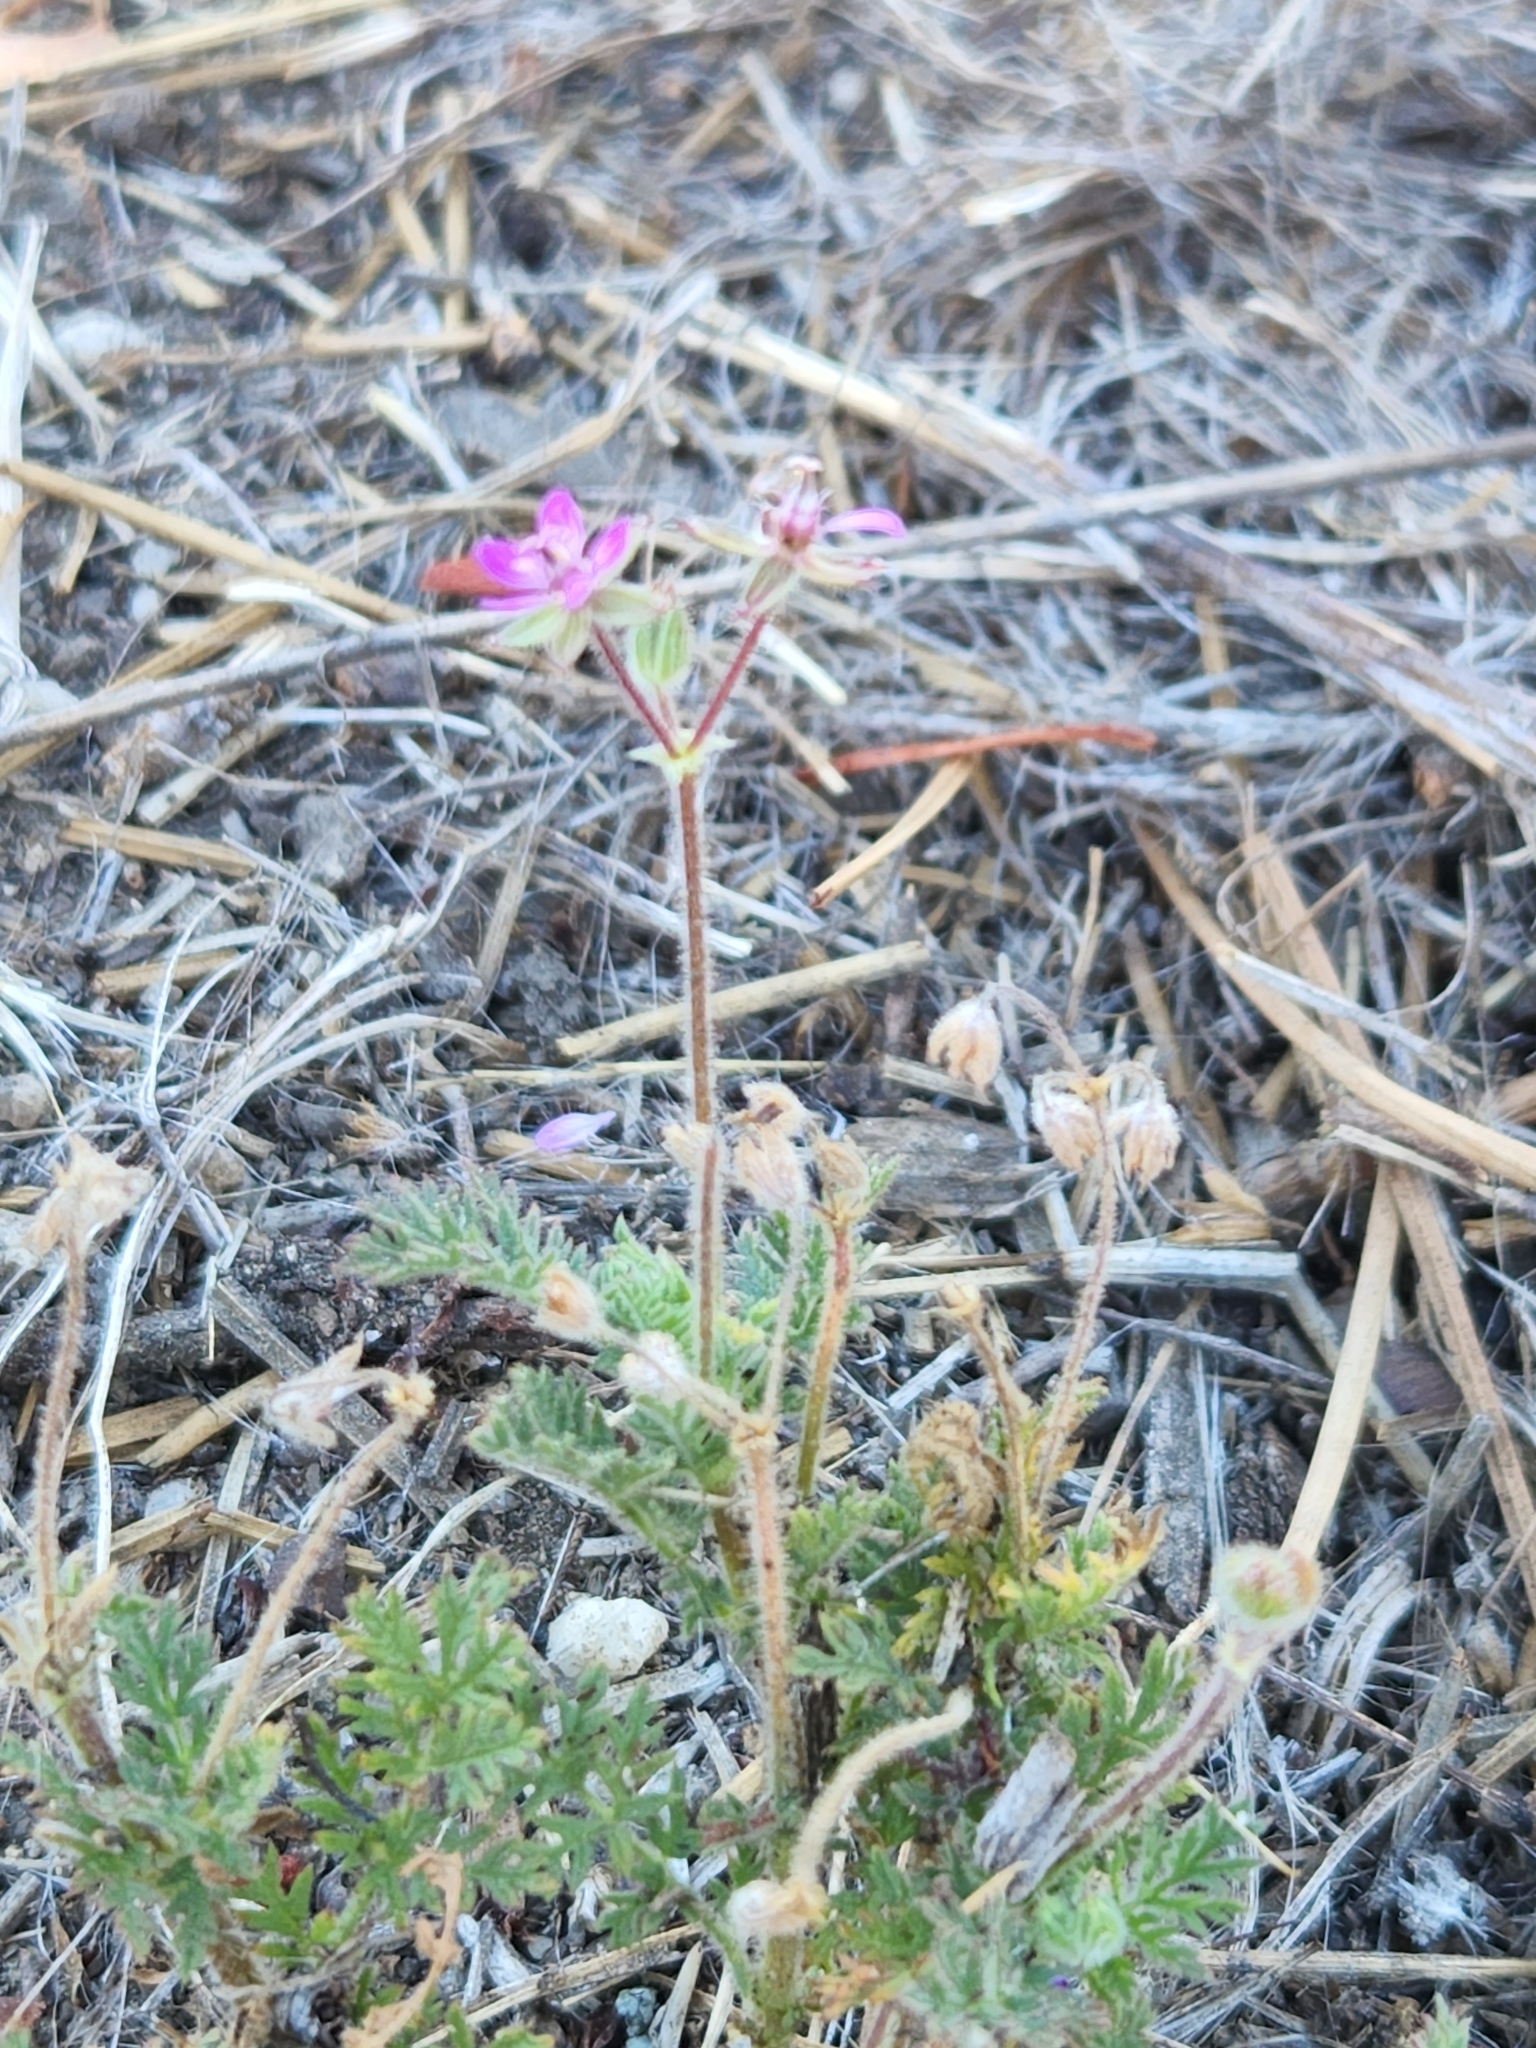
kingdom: Plantae
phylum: Tracheophyta
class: Magnoliopsida
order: Geraniales
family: Geraniaceae
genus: Erodium
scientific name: Erodium cicutarium
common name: Common stork's-bill
